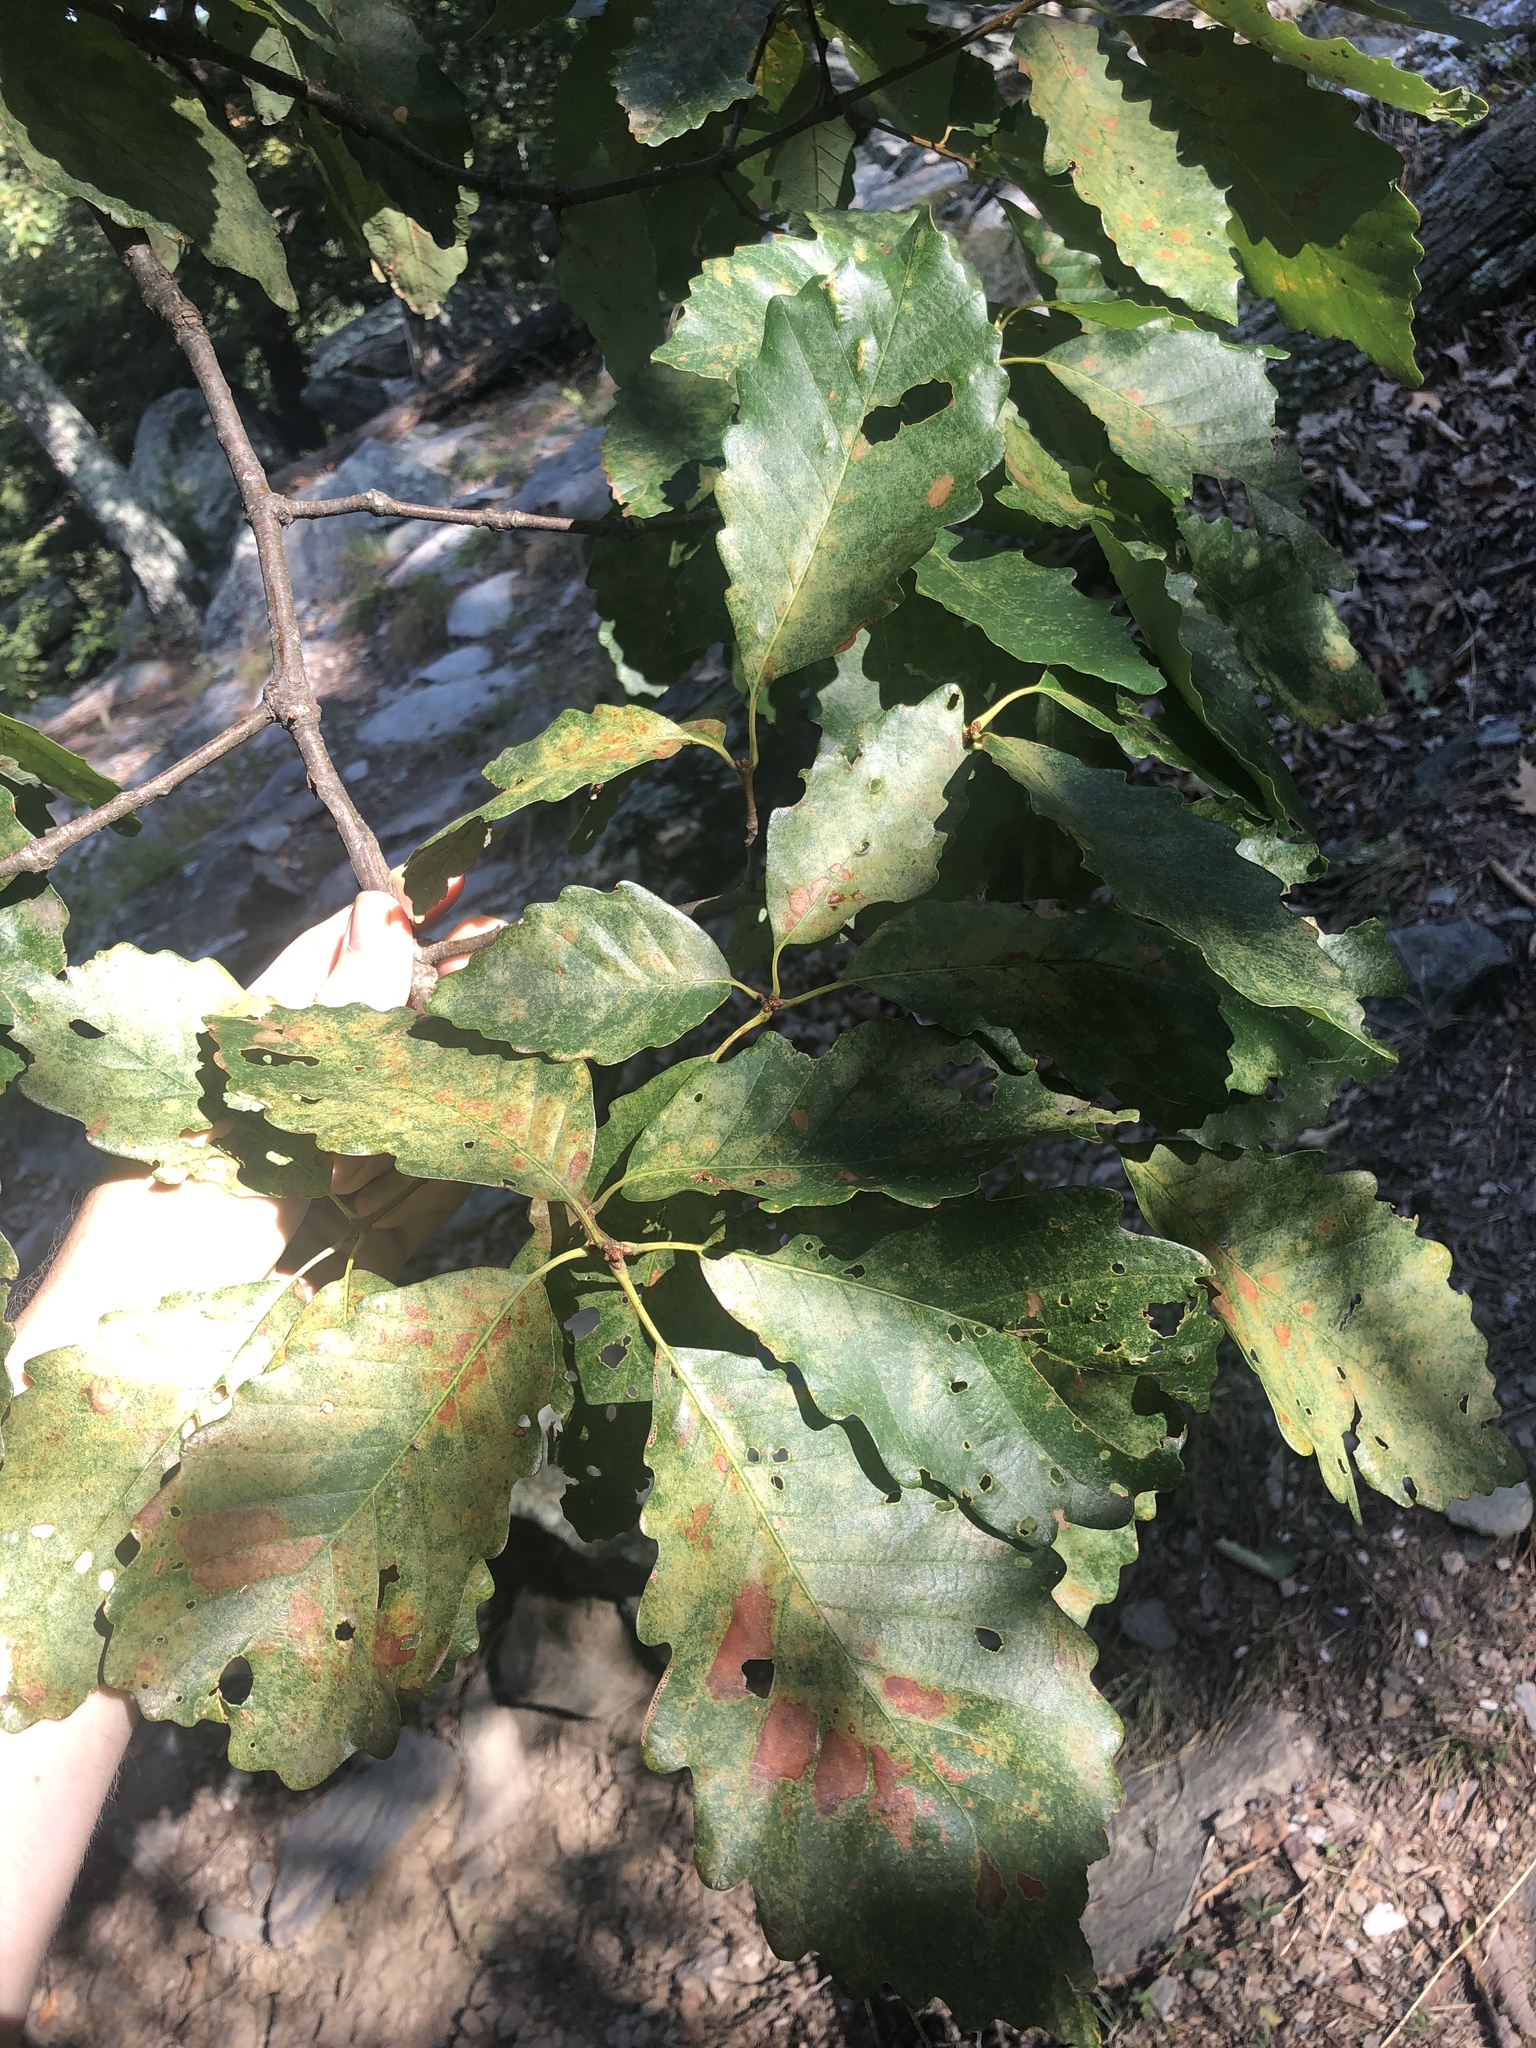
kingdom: Plantae
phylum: Tracheophyta
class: Magnoliopsida
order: Fagales
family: Fagaceae
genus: Quercus
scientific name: Quercus montana
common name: Chestnut oak
